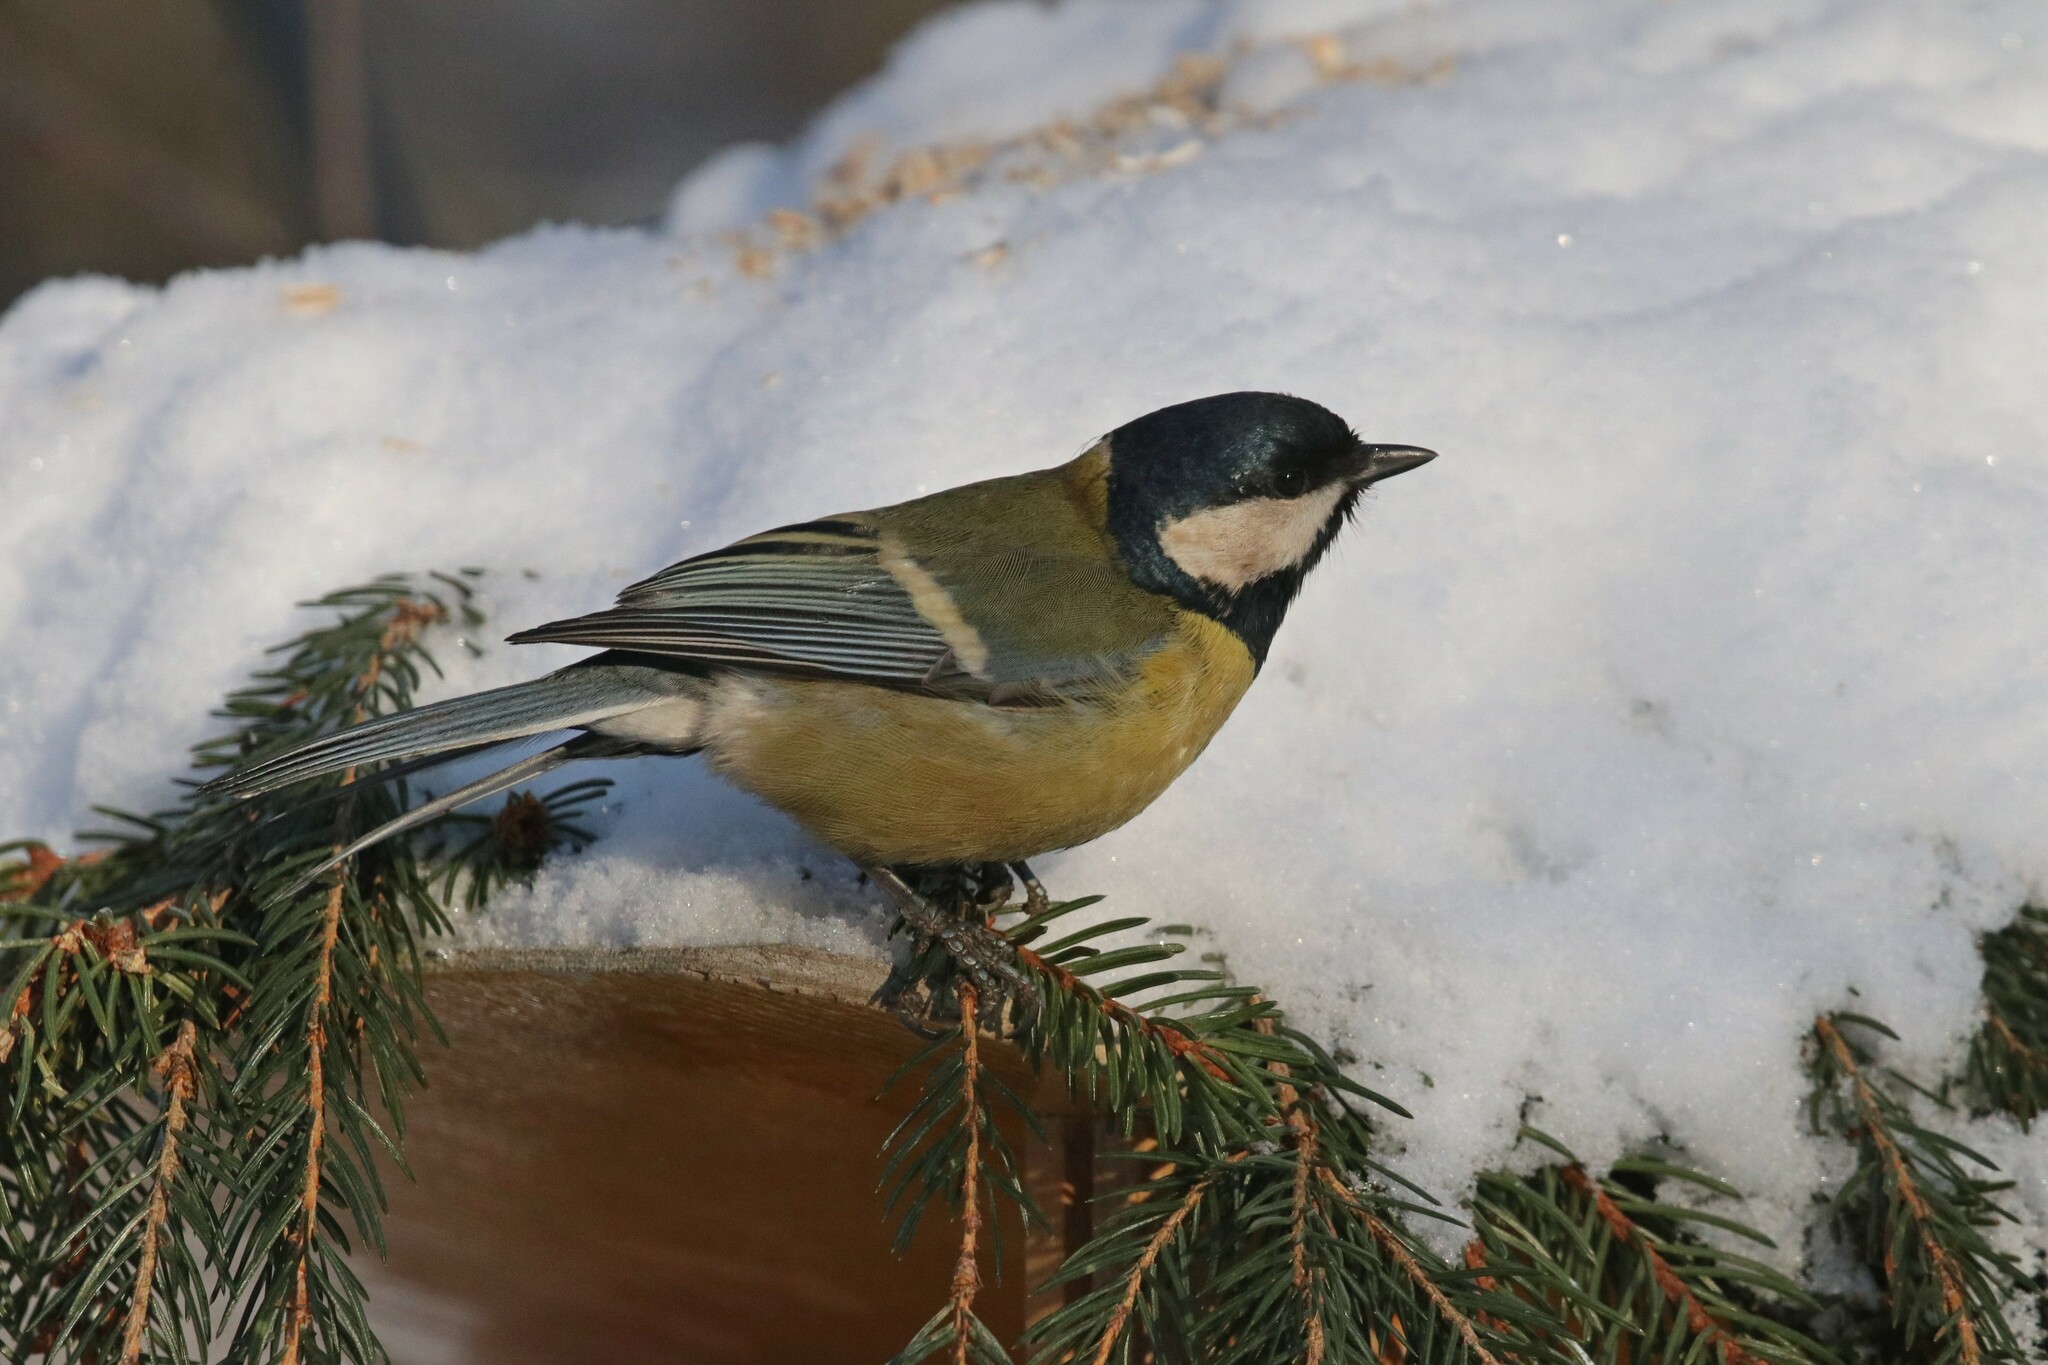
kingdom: Animalia
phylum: Chordata
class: Aves
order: Passeriformes
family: Paridae
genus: Parus
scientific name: Parus major
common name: Great tit
